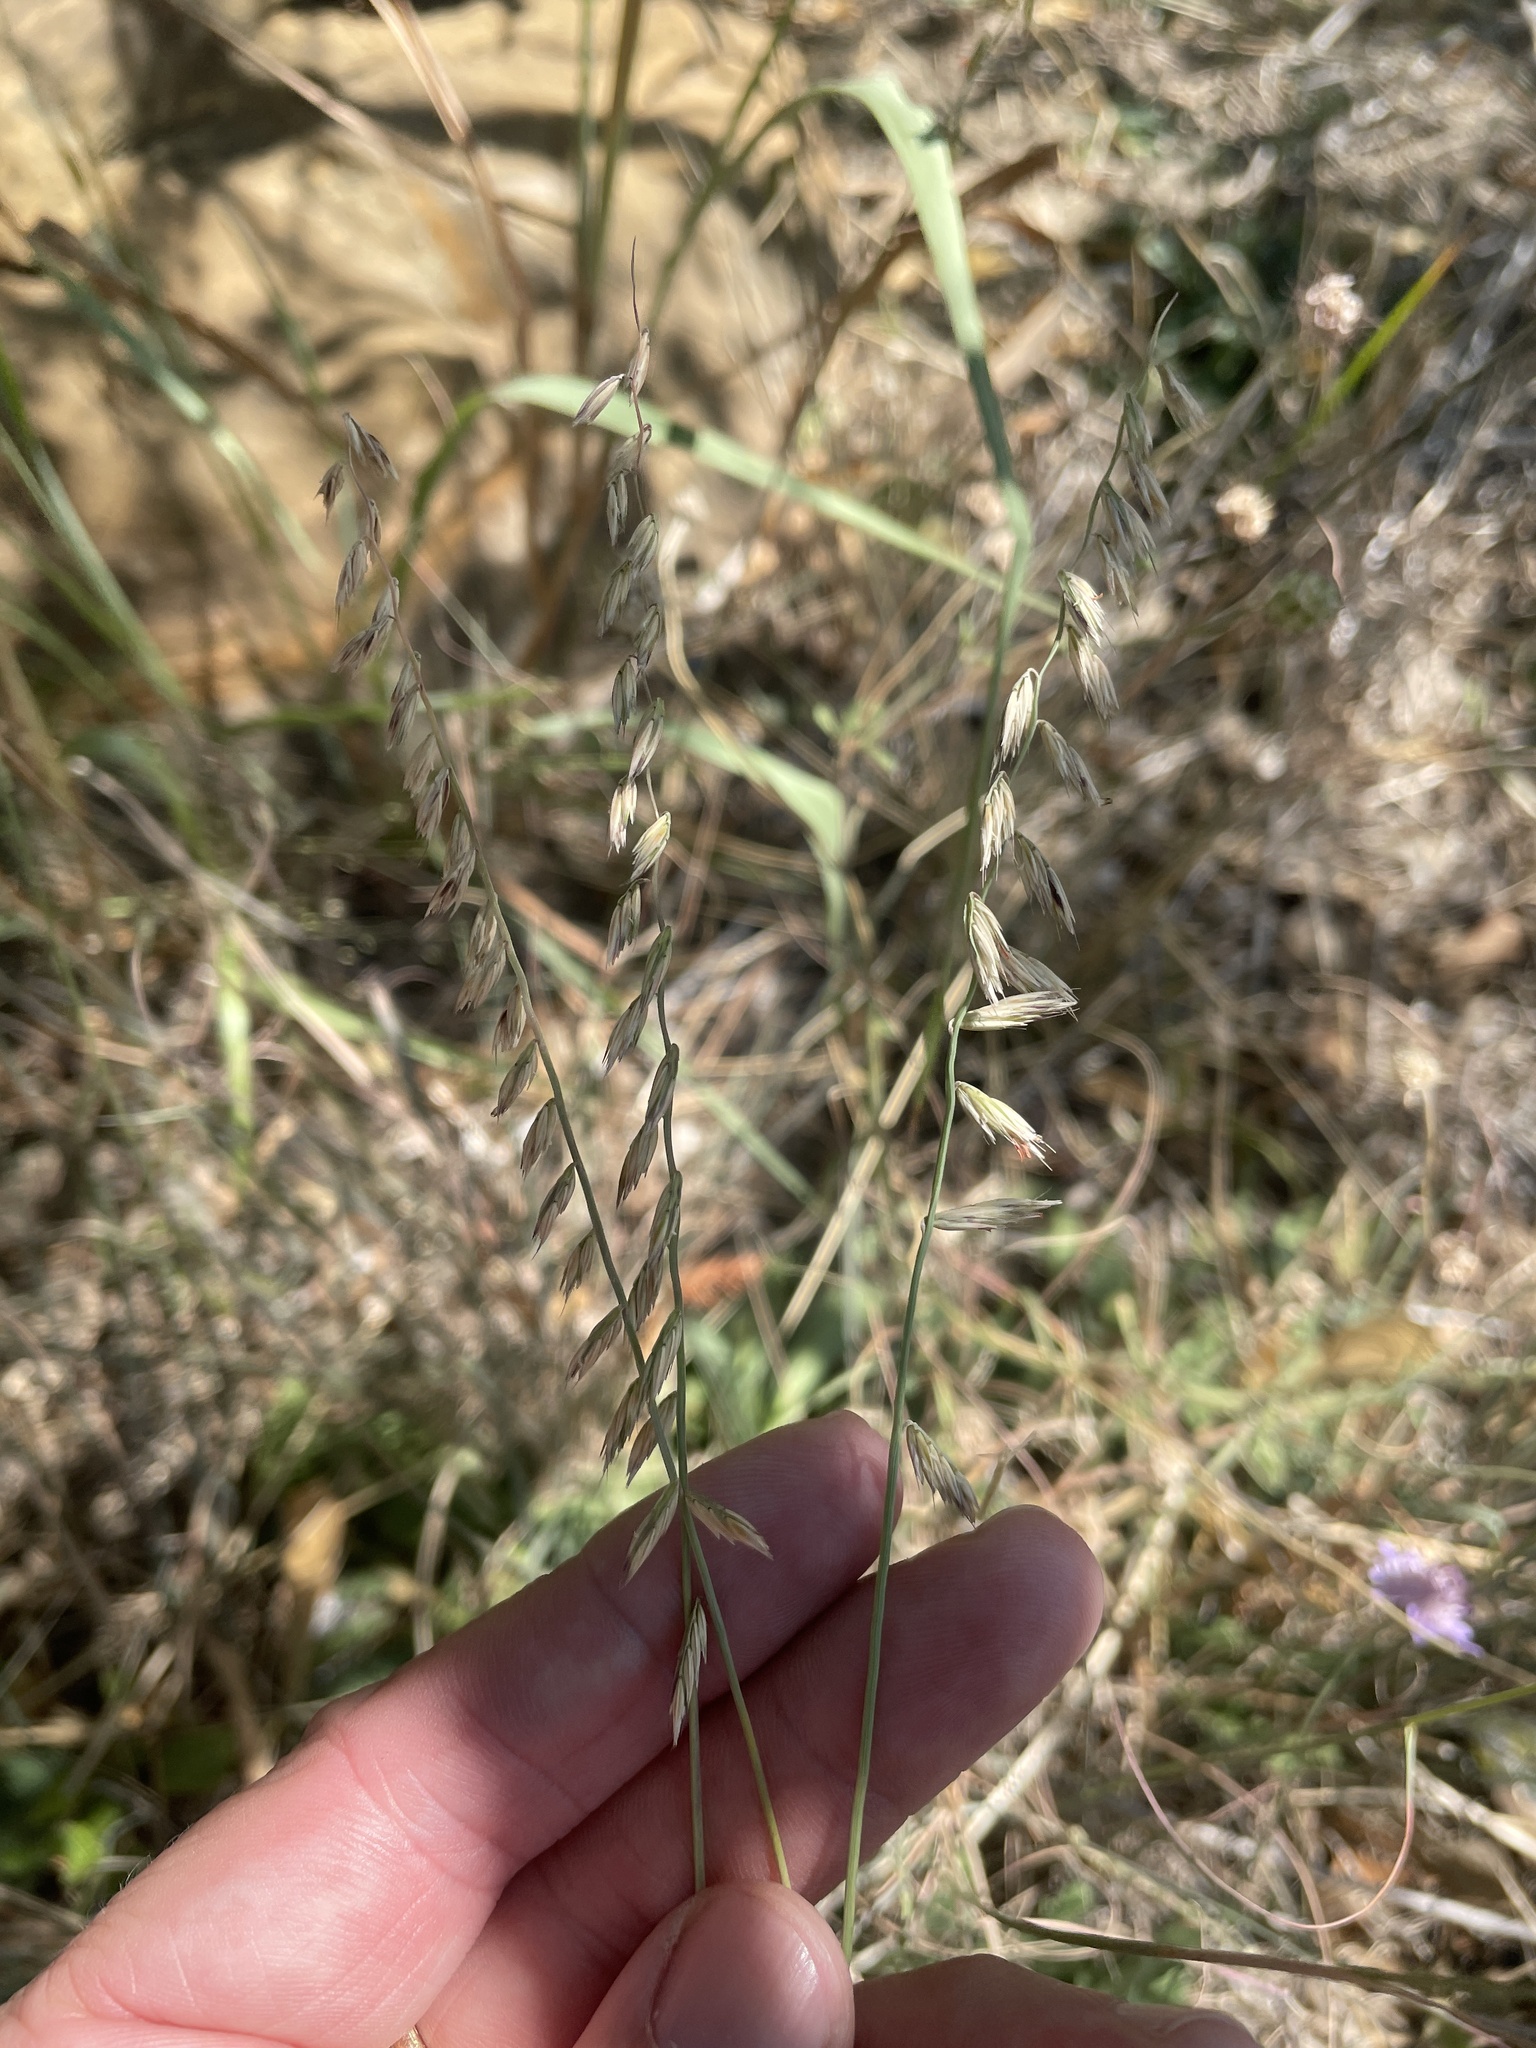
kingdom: Plantae
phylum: Tracheophyta
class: Liliopsida
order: Poales
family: Poaceae
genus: Bouteloua
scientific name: Bouteloua curtipendula
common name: Side-oats grama
